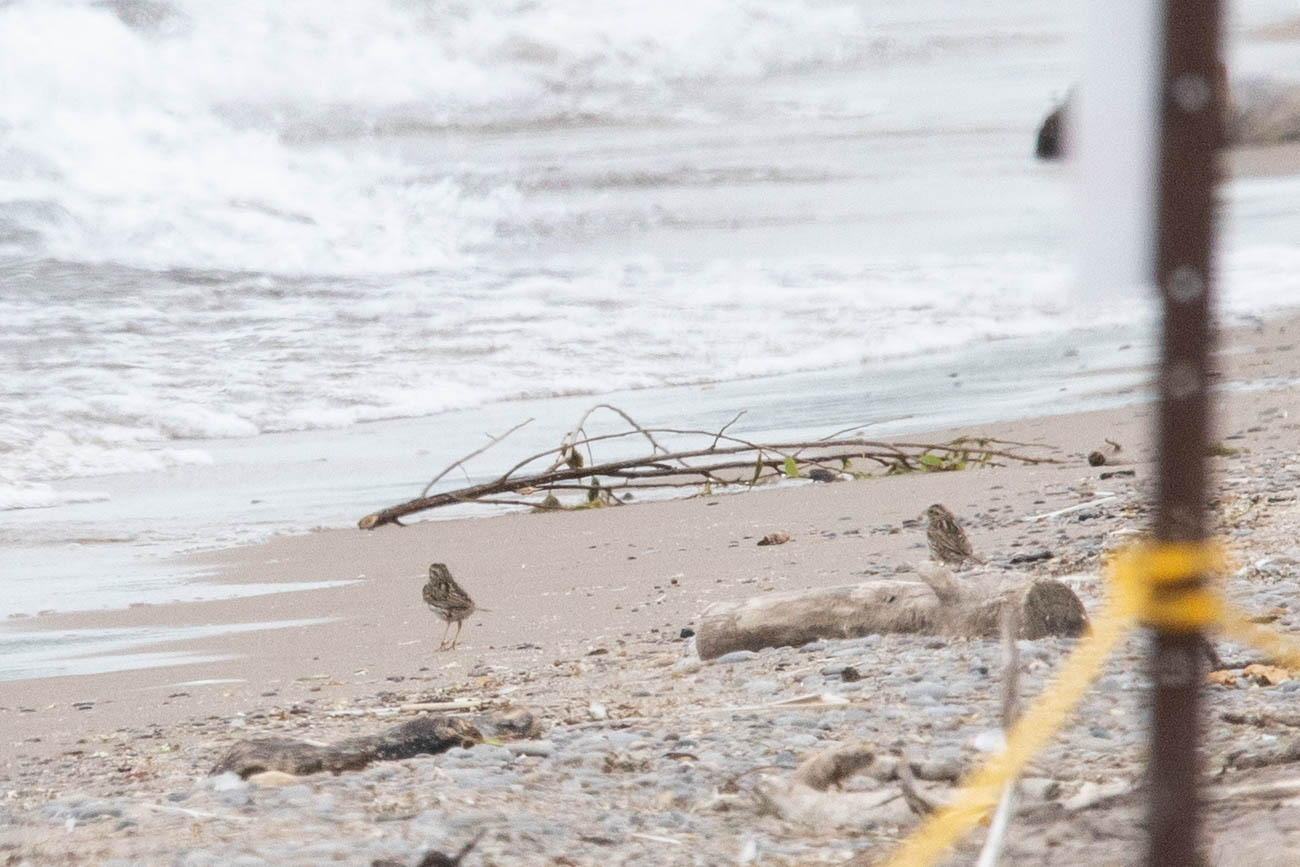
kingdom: Animalia
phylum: Chordata
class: Aves
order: Passeriformes
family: Passerellidae
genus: Passerculus
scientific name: Passerculus sandwichensis
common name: Savannah sparrow
